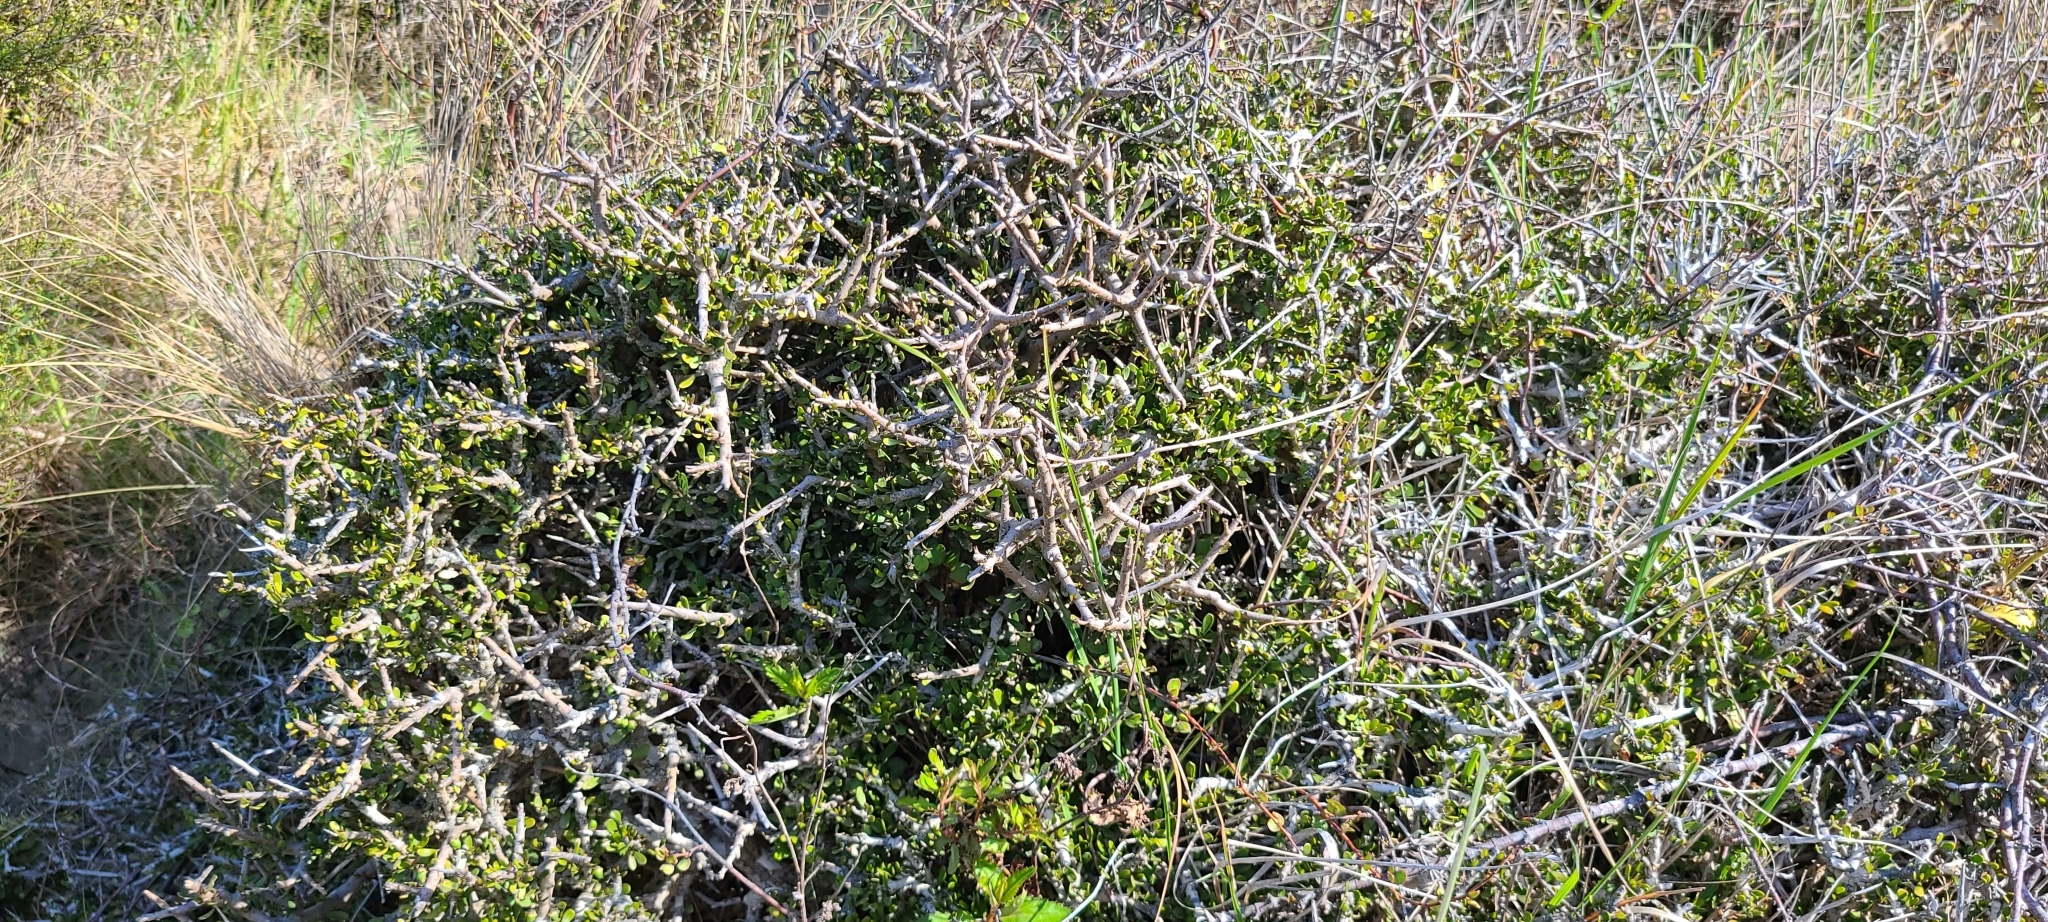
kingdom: Plantae
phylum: Tracheophyta
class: Magnoliopsida
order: Malpighiales
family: Violaceae
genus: Melicytus
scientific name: Melicytus alpinus
